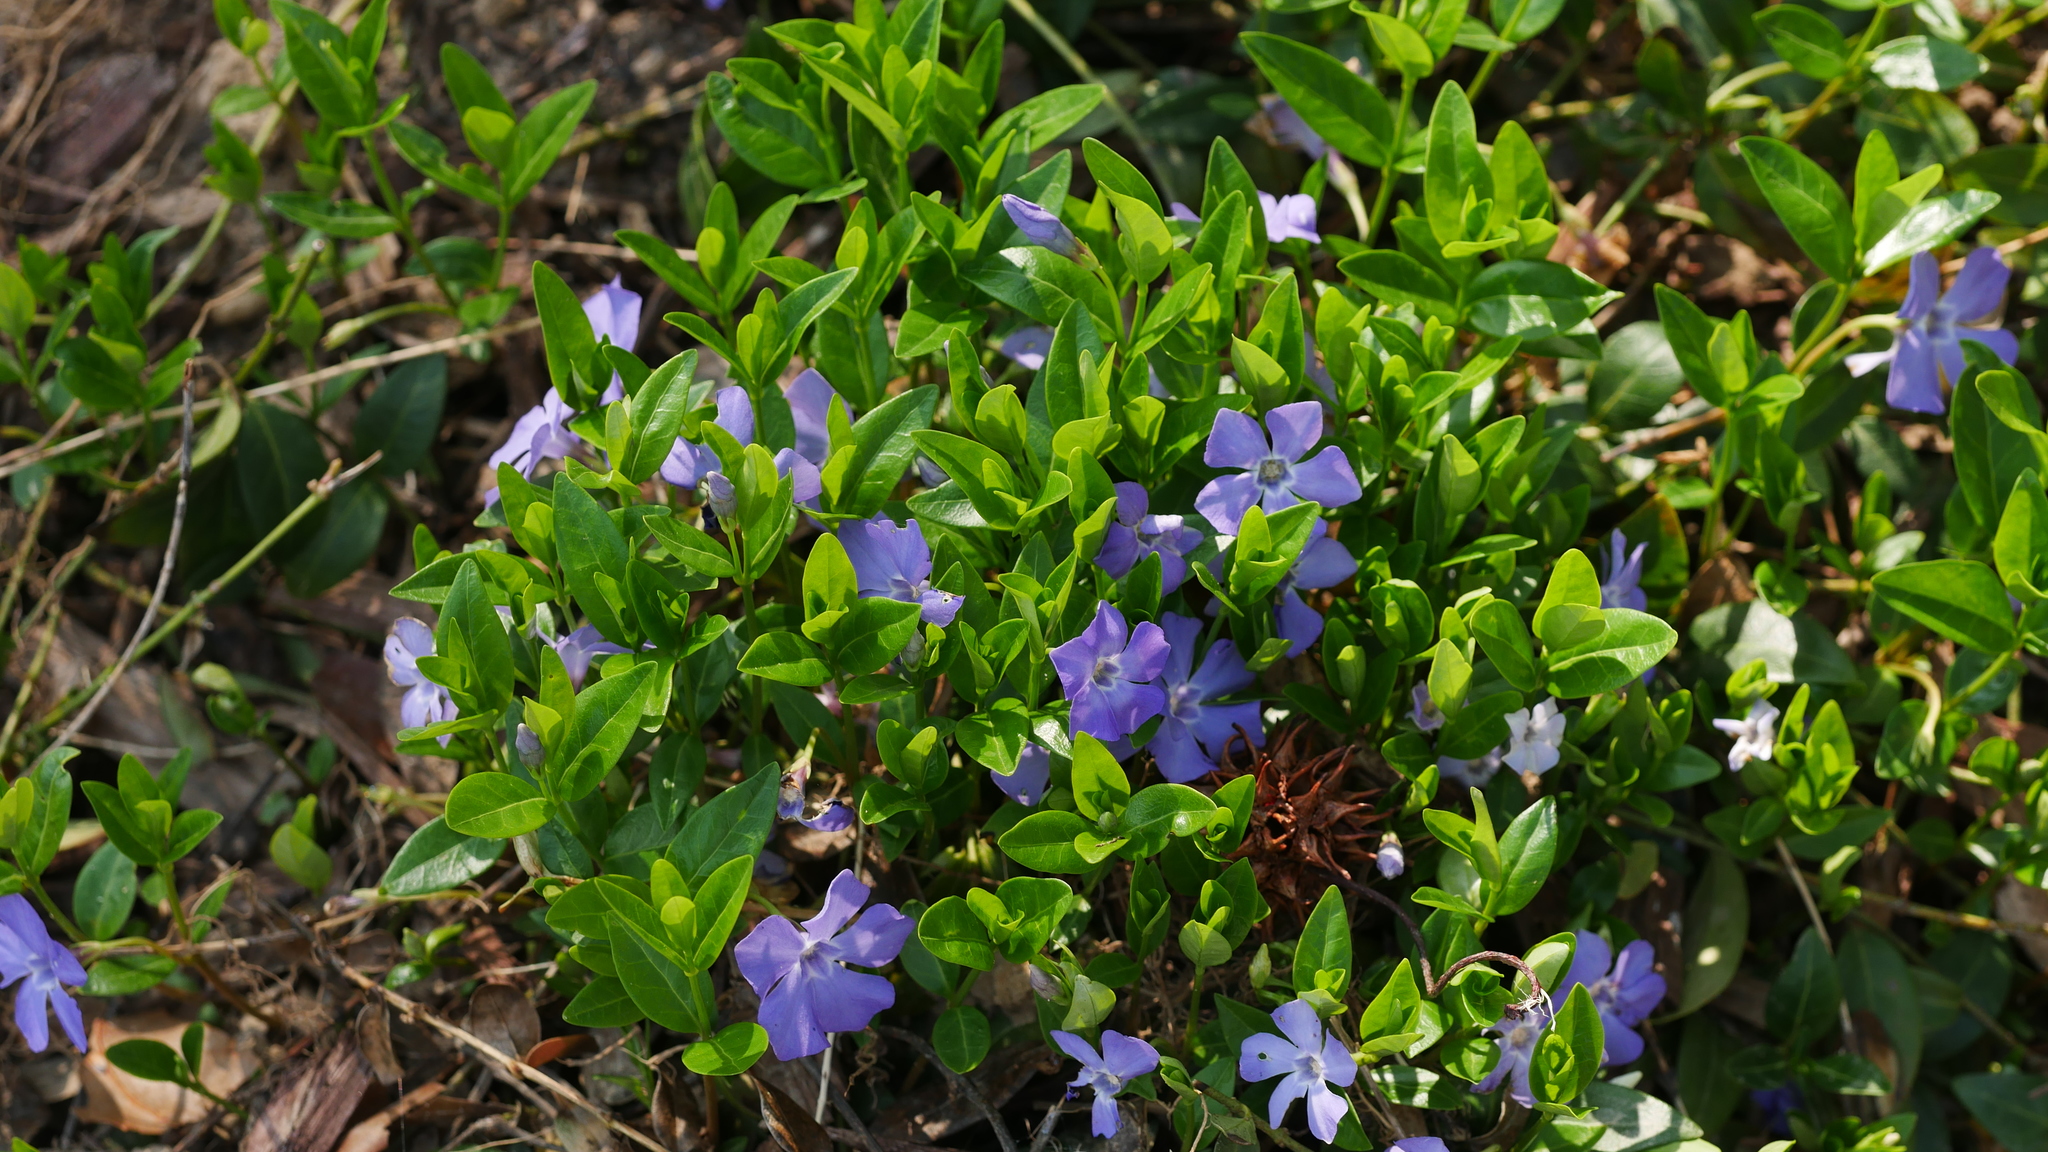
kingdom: Plantae
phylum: Tracheophyta
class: Magnoliopsida
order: Gentianales
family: Apocynaceae
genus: Vinca
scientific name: Vinca minor
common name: Lesser periwinkle
